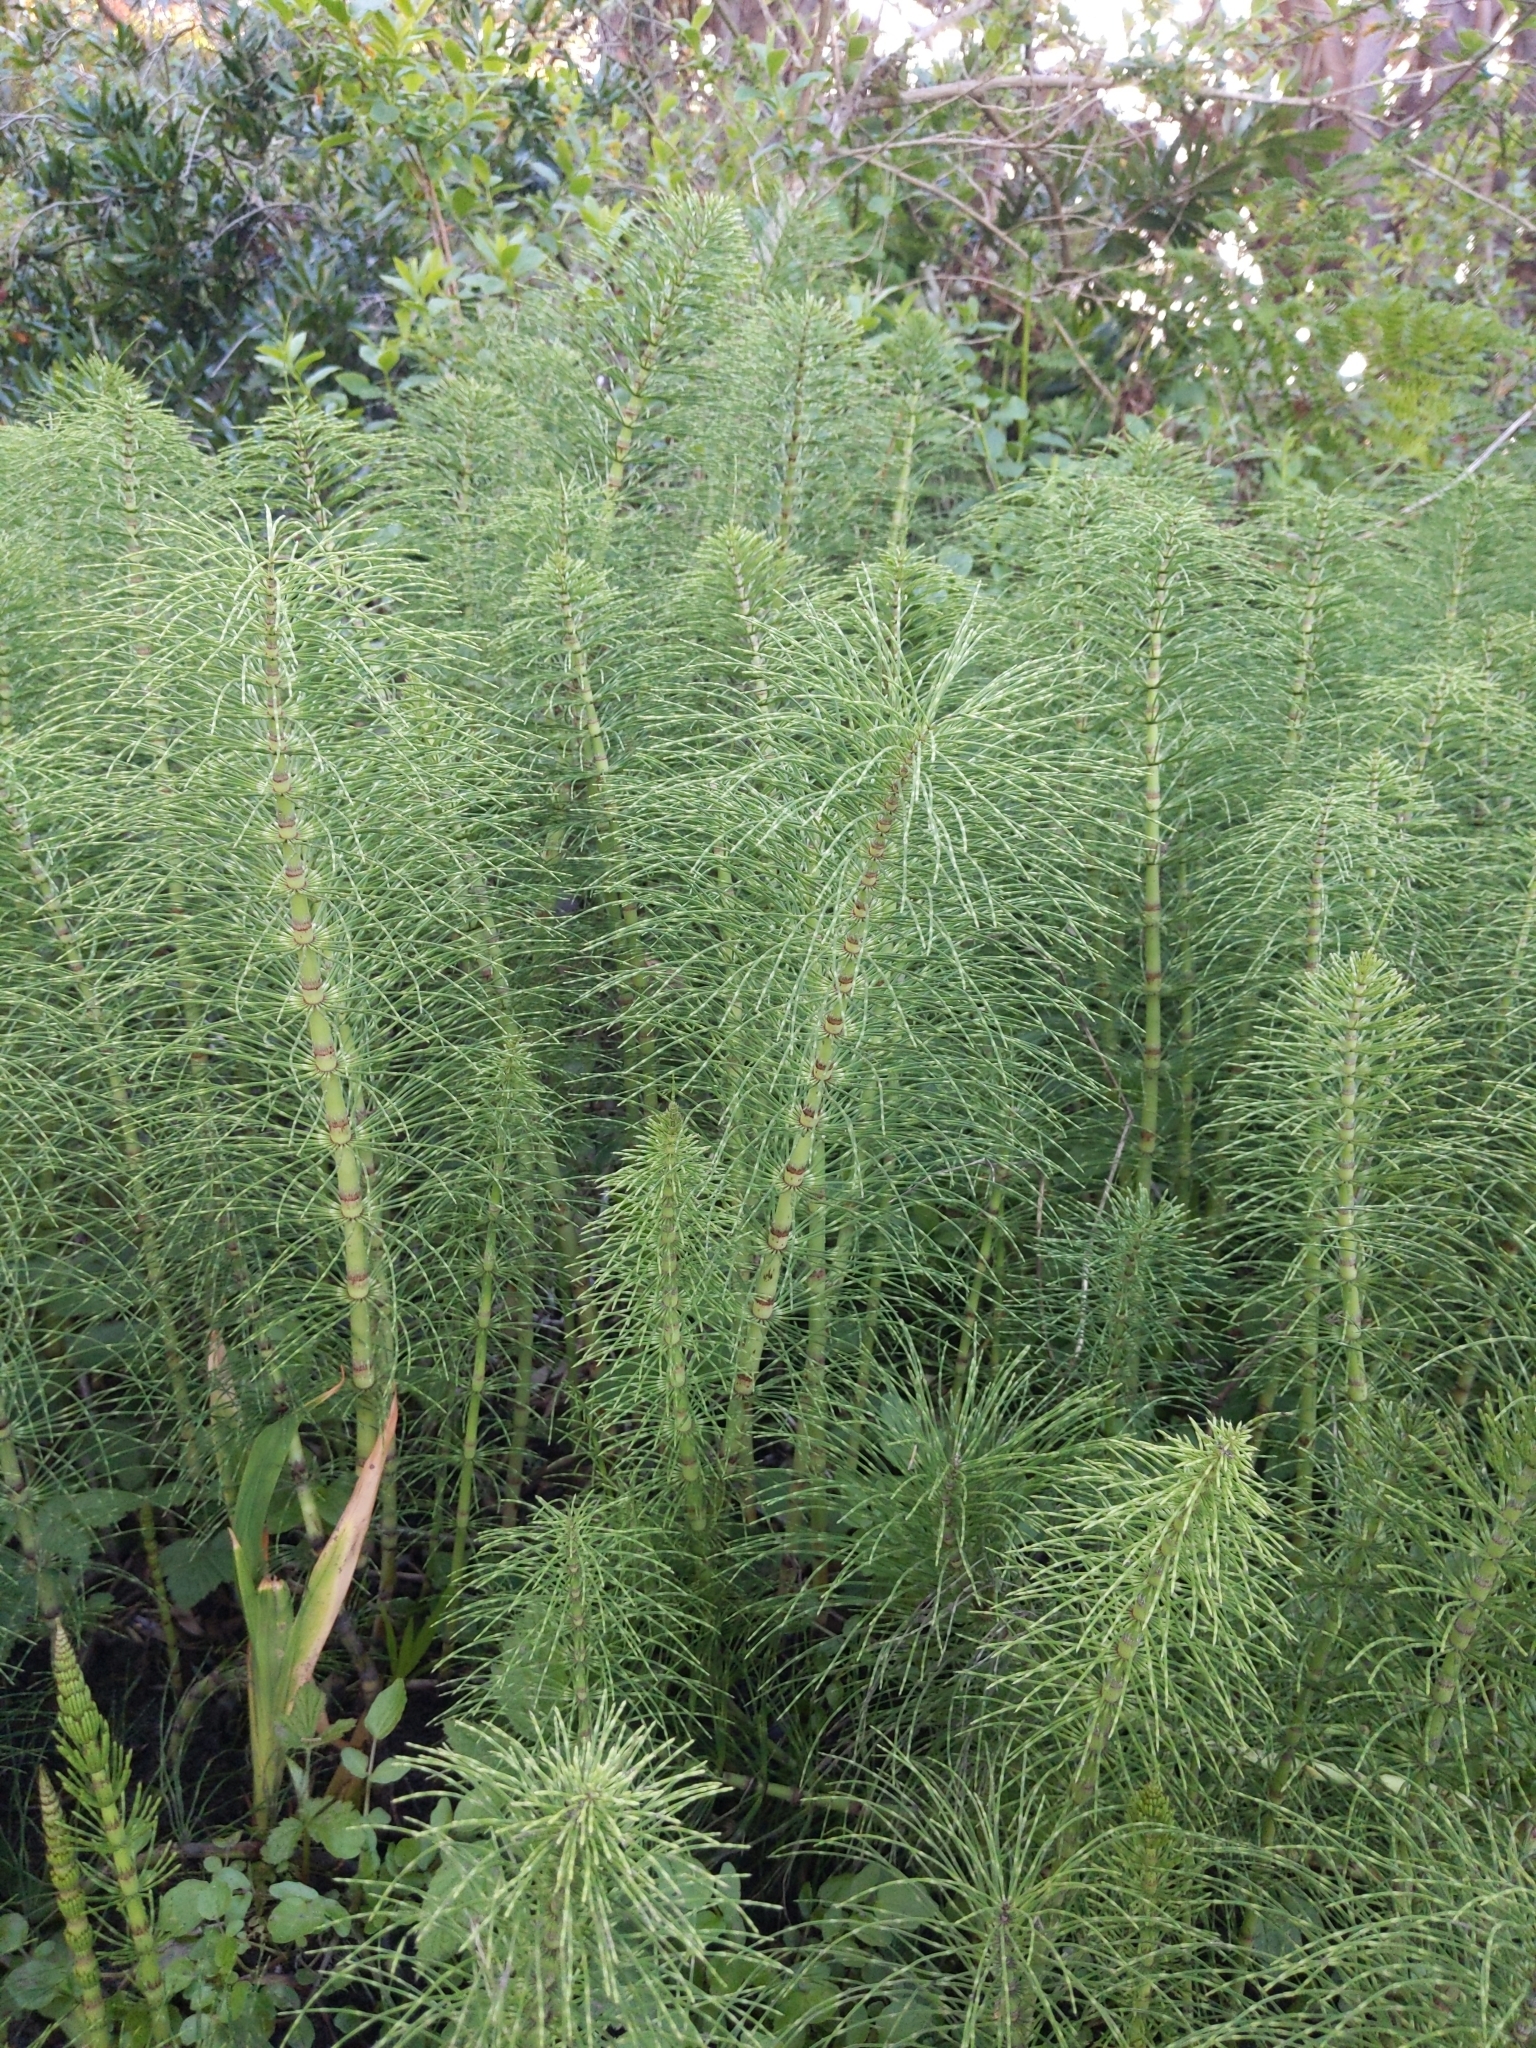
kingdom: Plantae
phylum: Tracheophyta
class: Polypodiopsida
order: Equisetales
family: Equisetaceae
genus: Equisetum
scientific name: Equisetum telmateia
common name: Great horsetail
